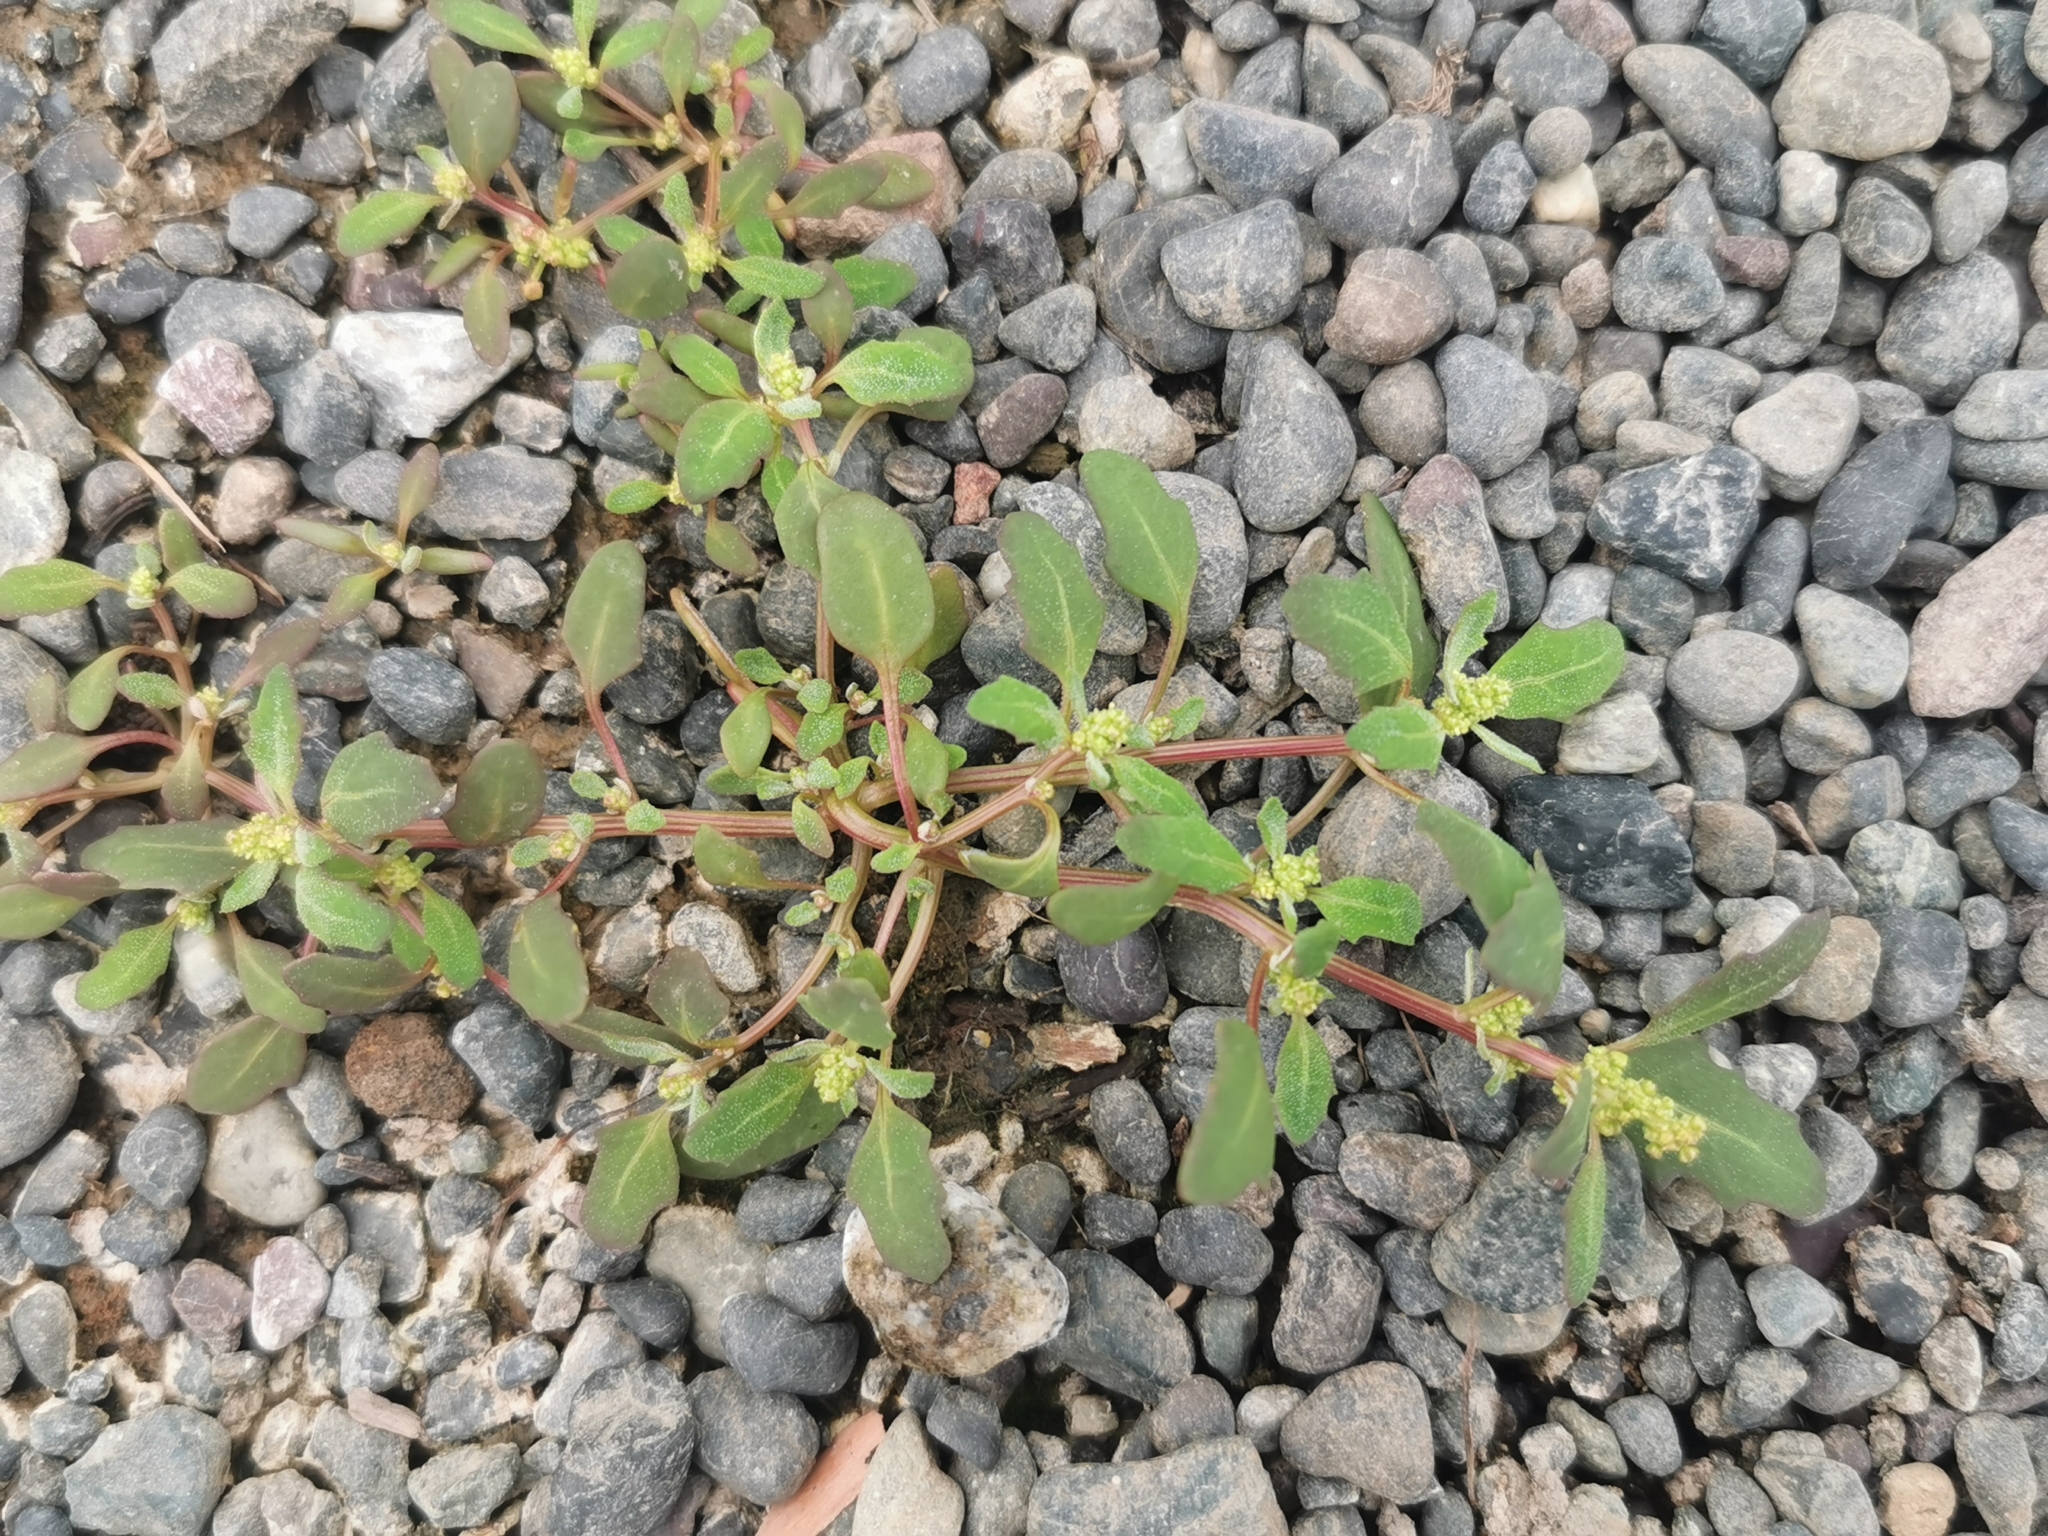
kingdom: Plantae
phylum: Tracheophyta
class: Magnoliopsida
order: Caryophyllales
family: Amaranthaceae
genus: Oxybasis
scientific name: Oxybasis glauca
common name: Glaucous goosefoot
